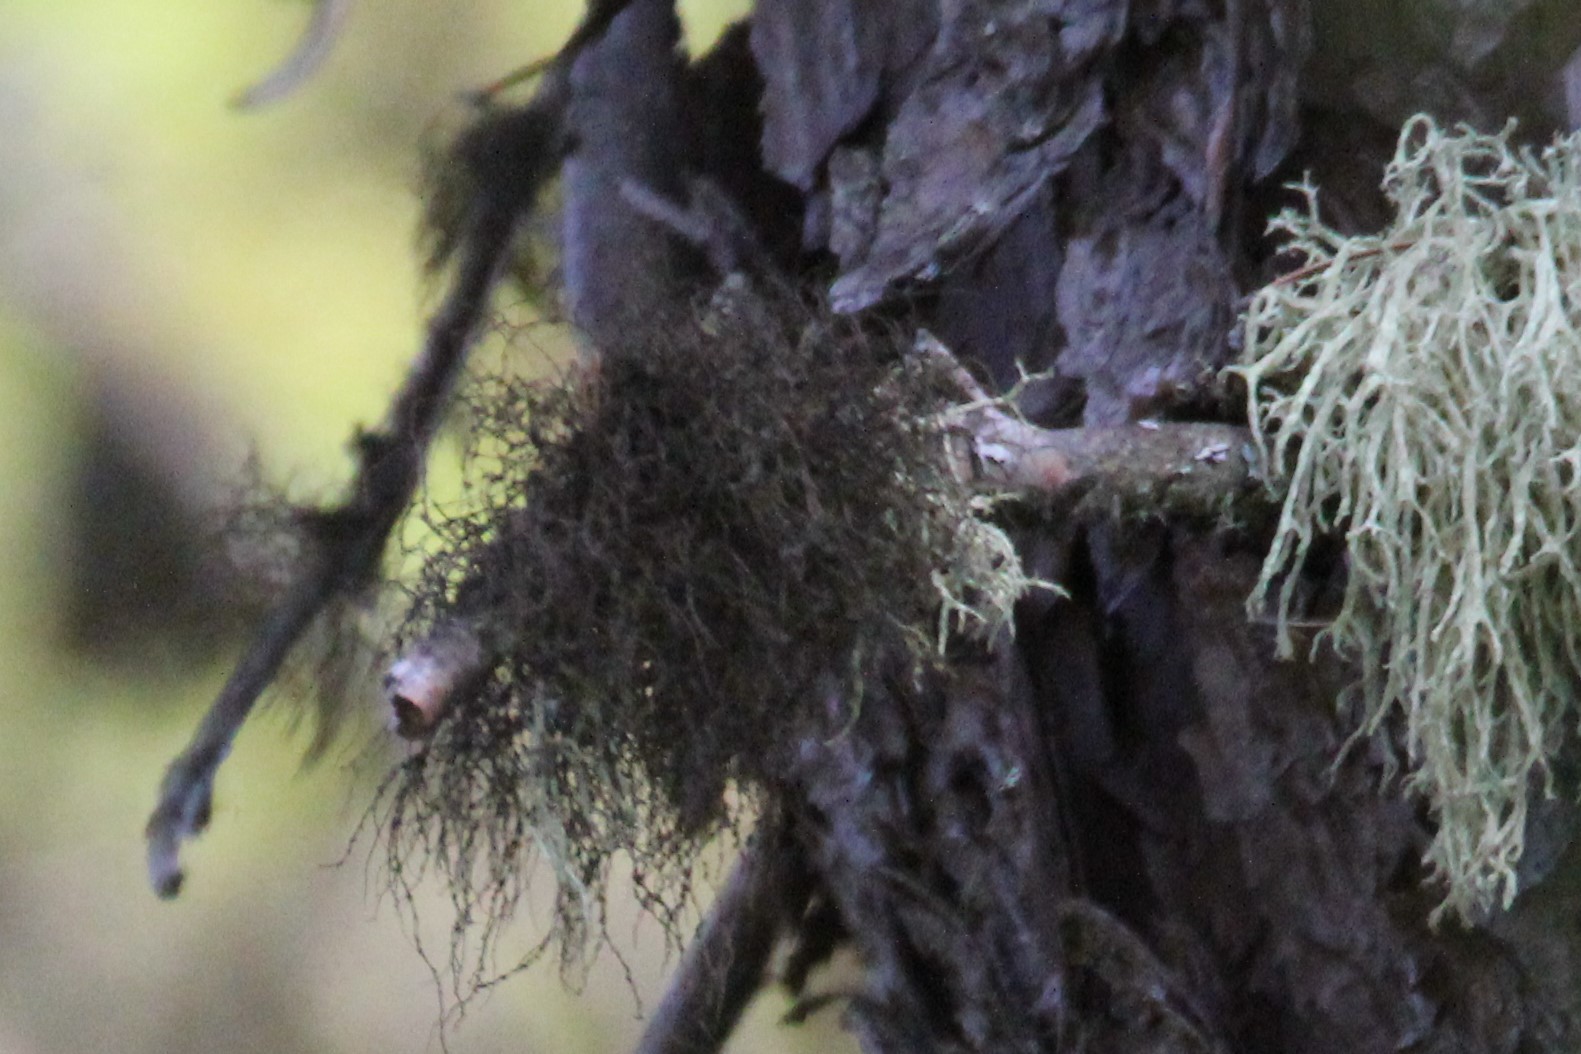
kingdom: Fungi
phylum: Ascomycota
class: Lecanoromycetes
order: Lecanorales
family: Parmeliaceae
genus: Bryoria
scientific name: Bryoria furcellata
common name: Forked hair-lichen
